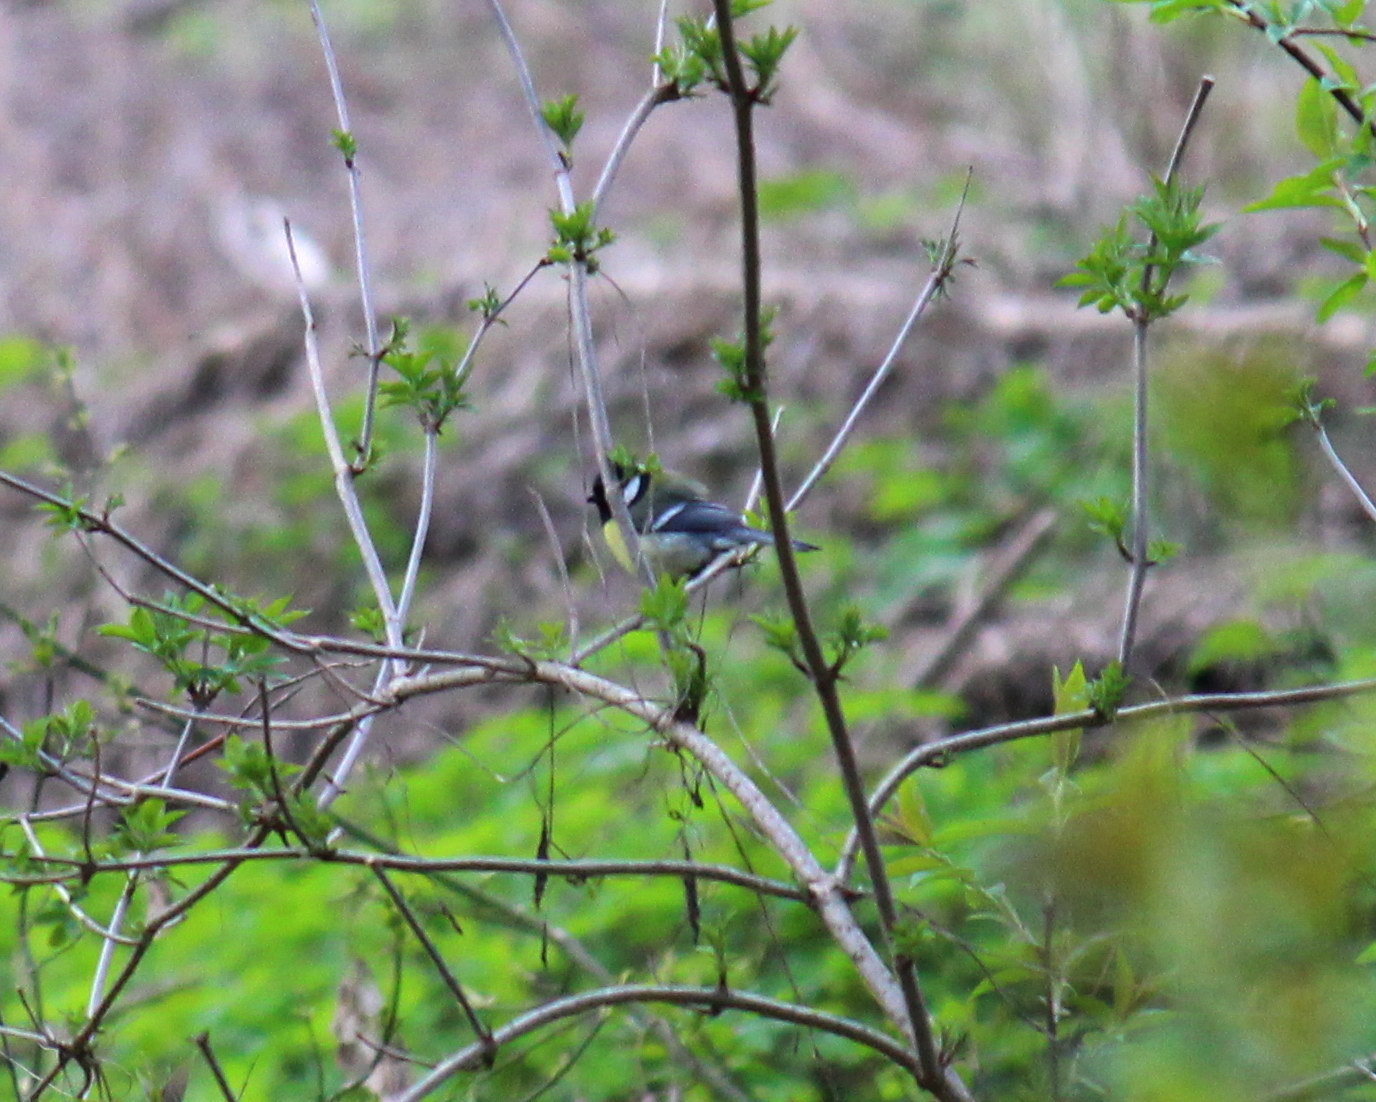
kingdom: Animalia
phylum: Chordata
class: Aves
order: Passeriformes
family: Paridae
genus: Parus
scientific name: Parus major
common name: Great tit
